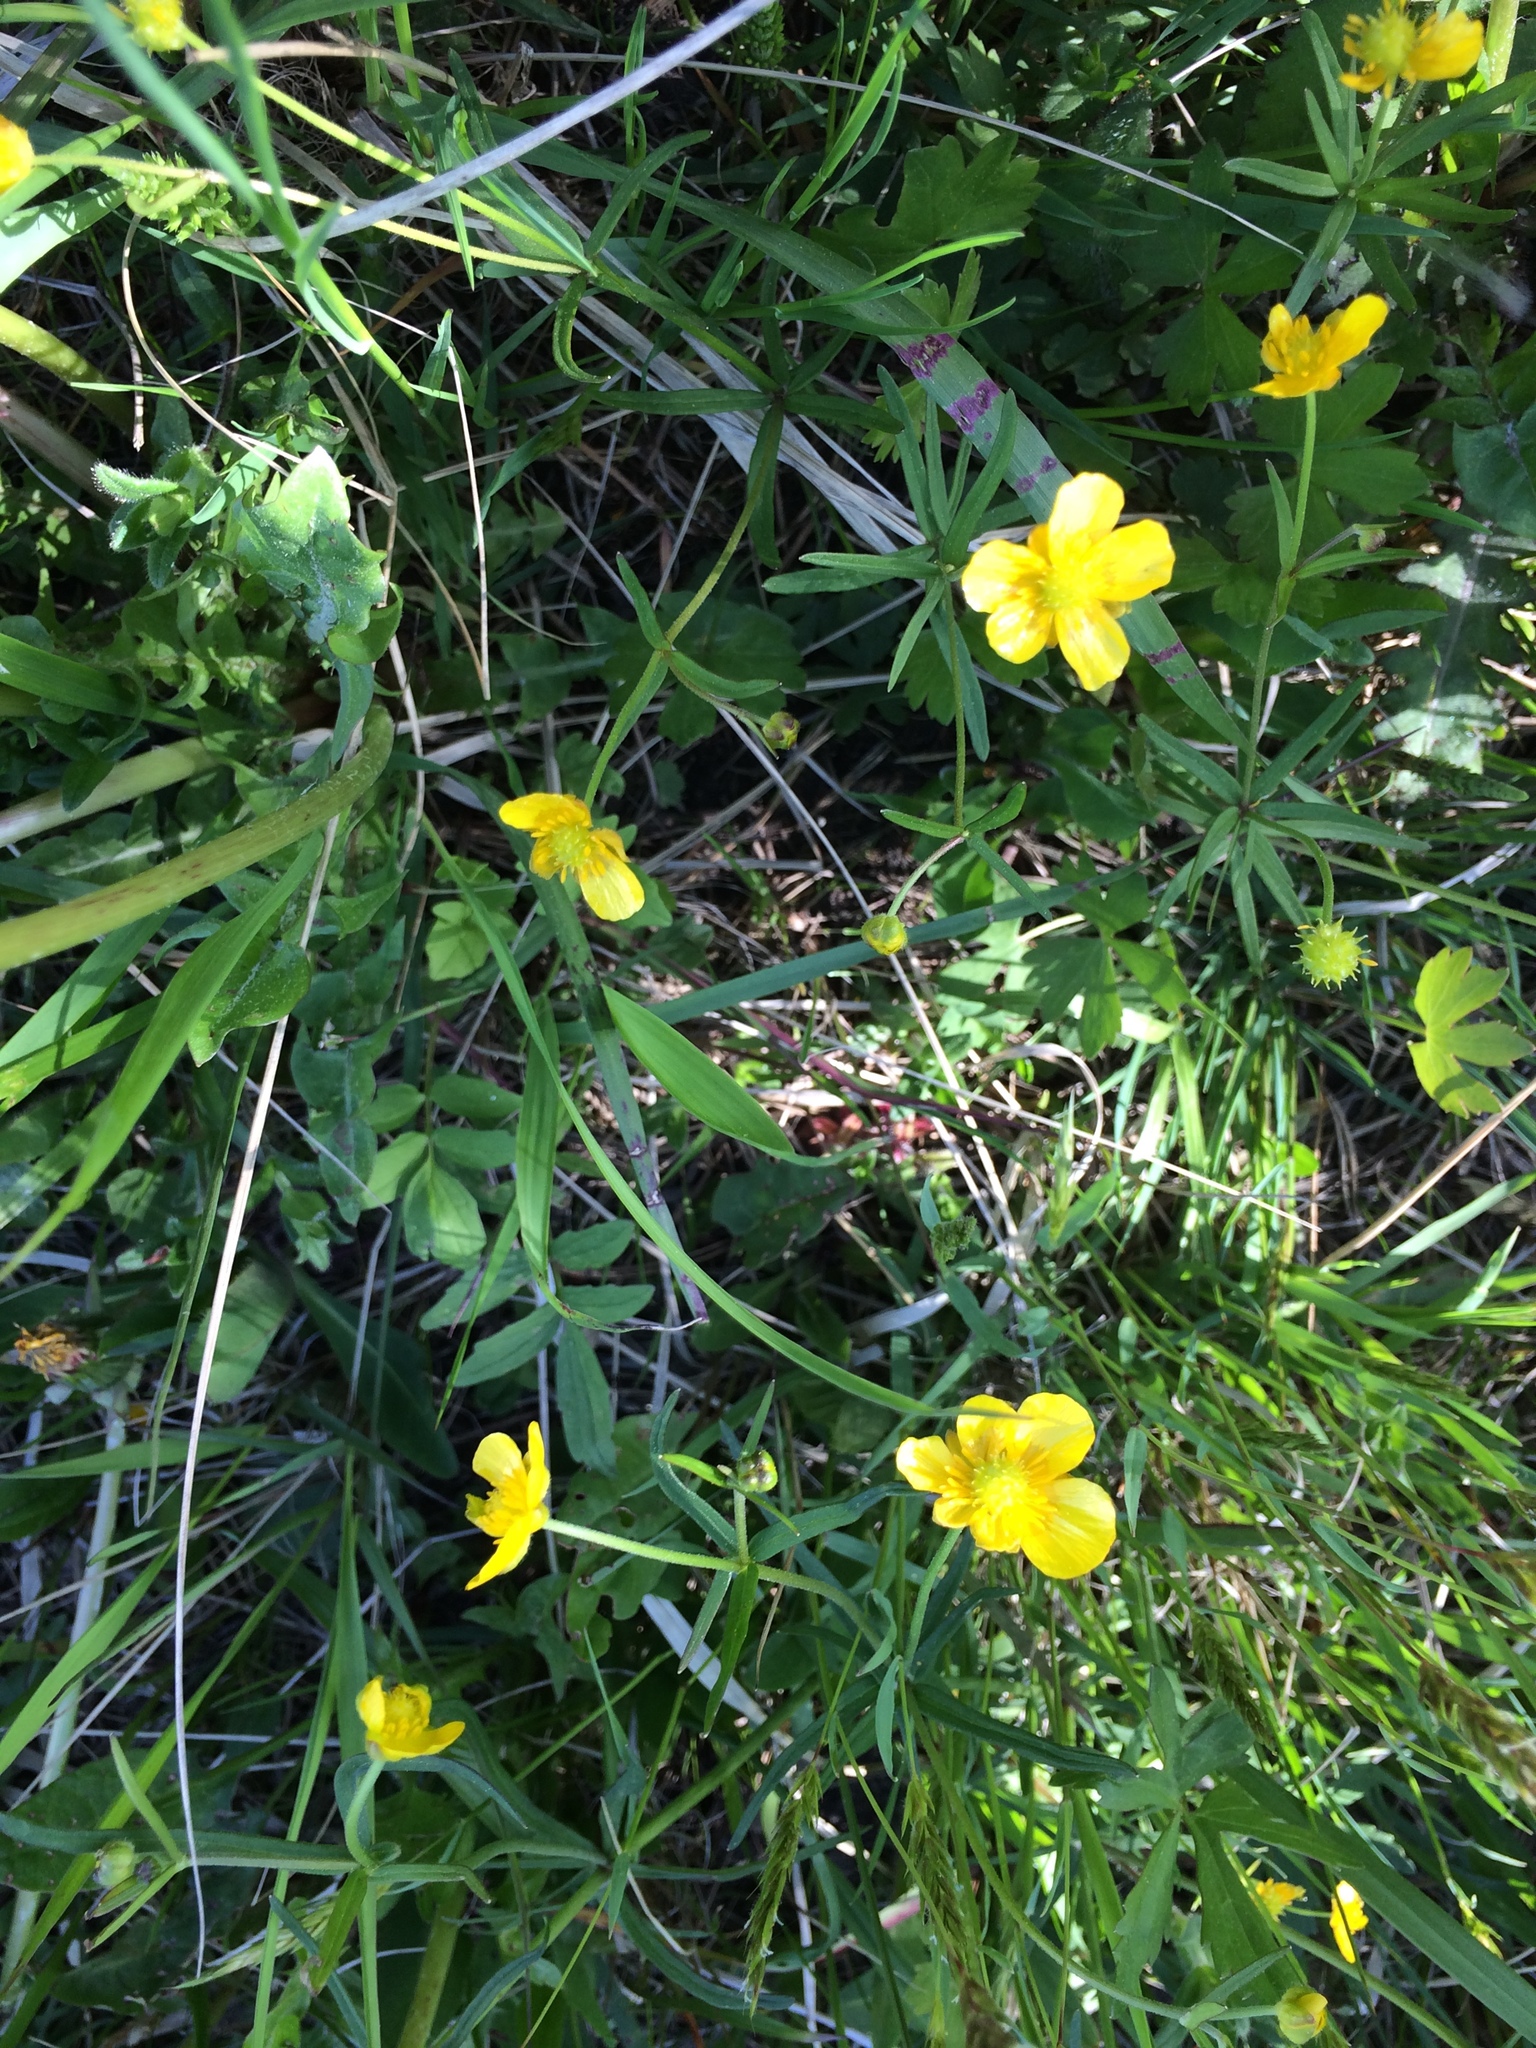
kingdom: Plantae
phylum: Tracheophyta
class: Magnoliopsida
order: Ranunculales
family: Ranunculaceae
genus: Ranunculus
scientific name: Ranunculus auricomus
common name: Goldilocks buttercup
